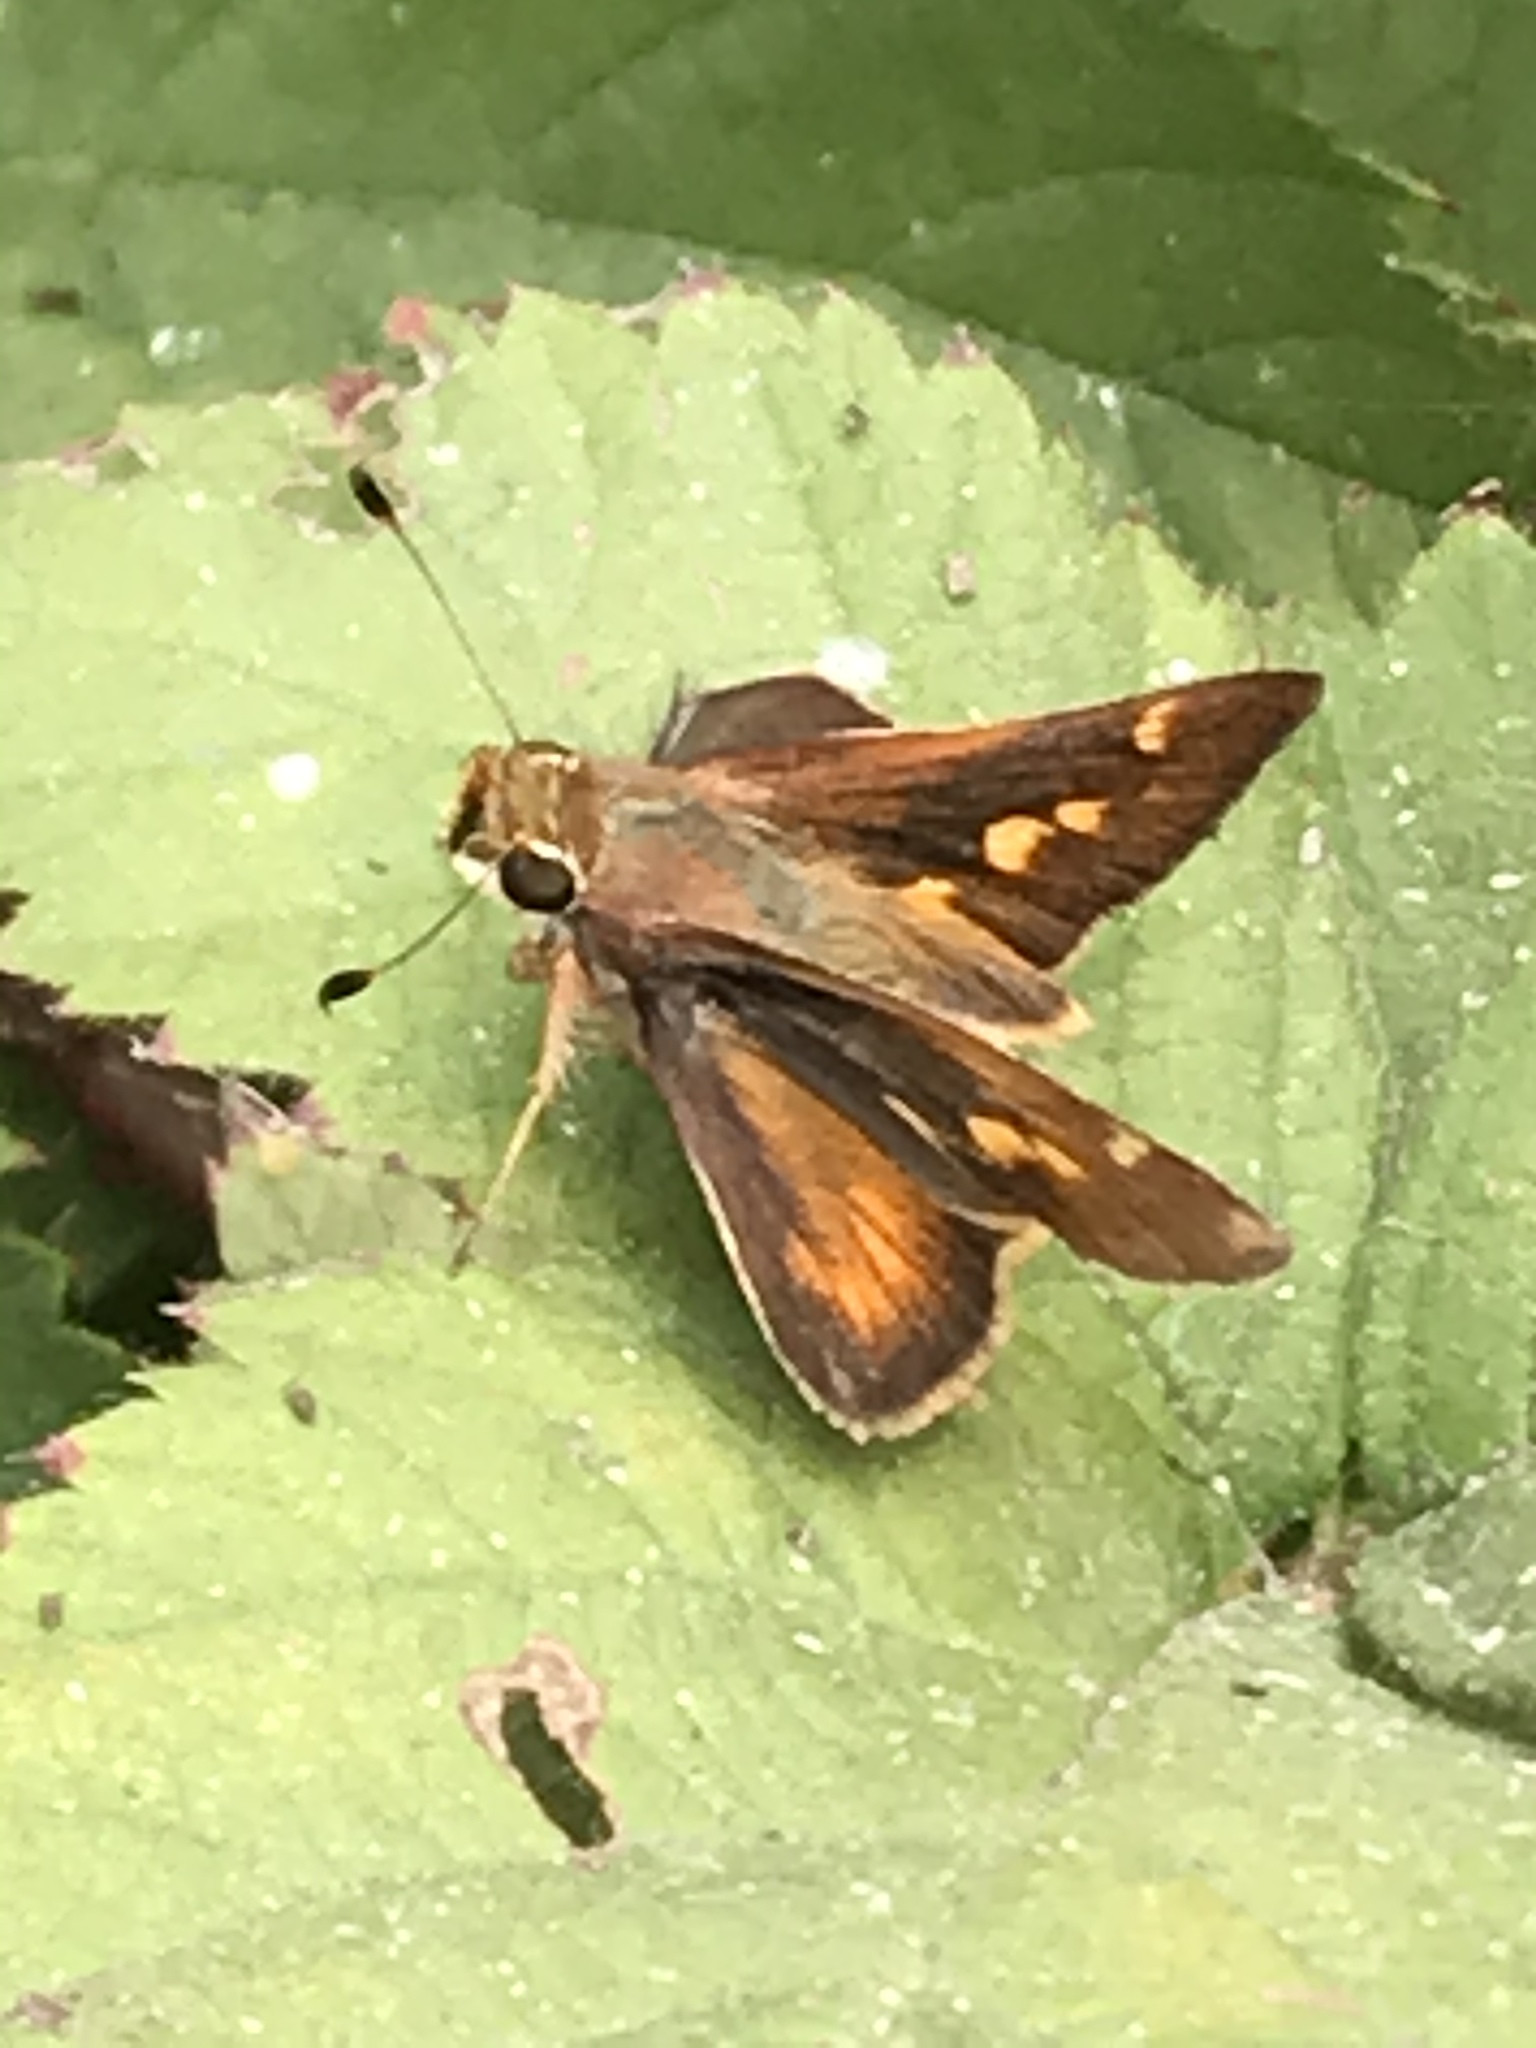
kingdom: Animalia
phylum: Arthropoda
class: Insecta
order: Lepidoptera
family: Hesperiidae
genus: Lon
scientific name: Lon melane
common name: Umber skipper
